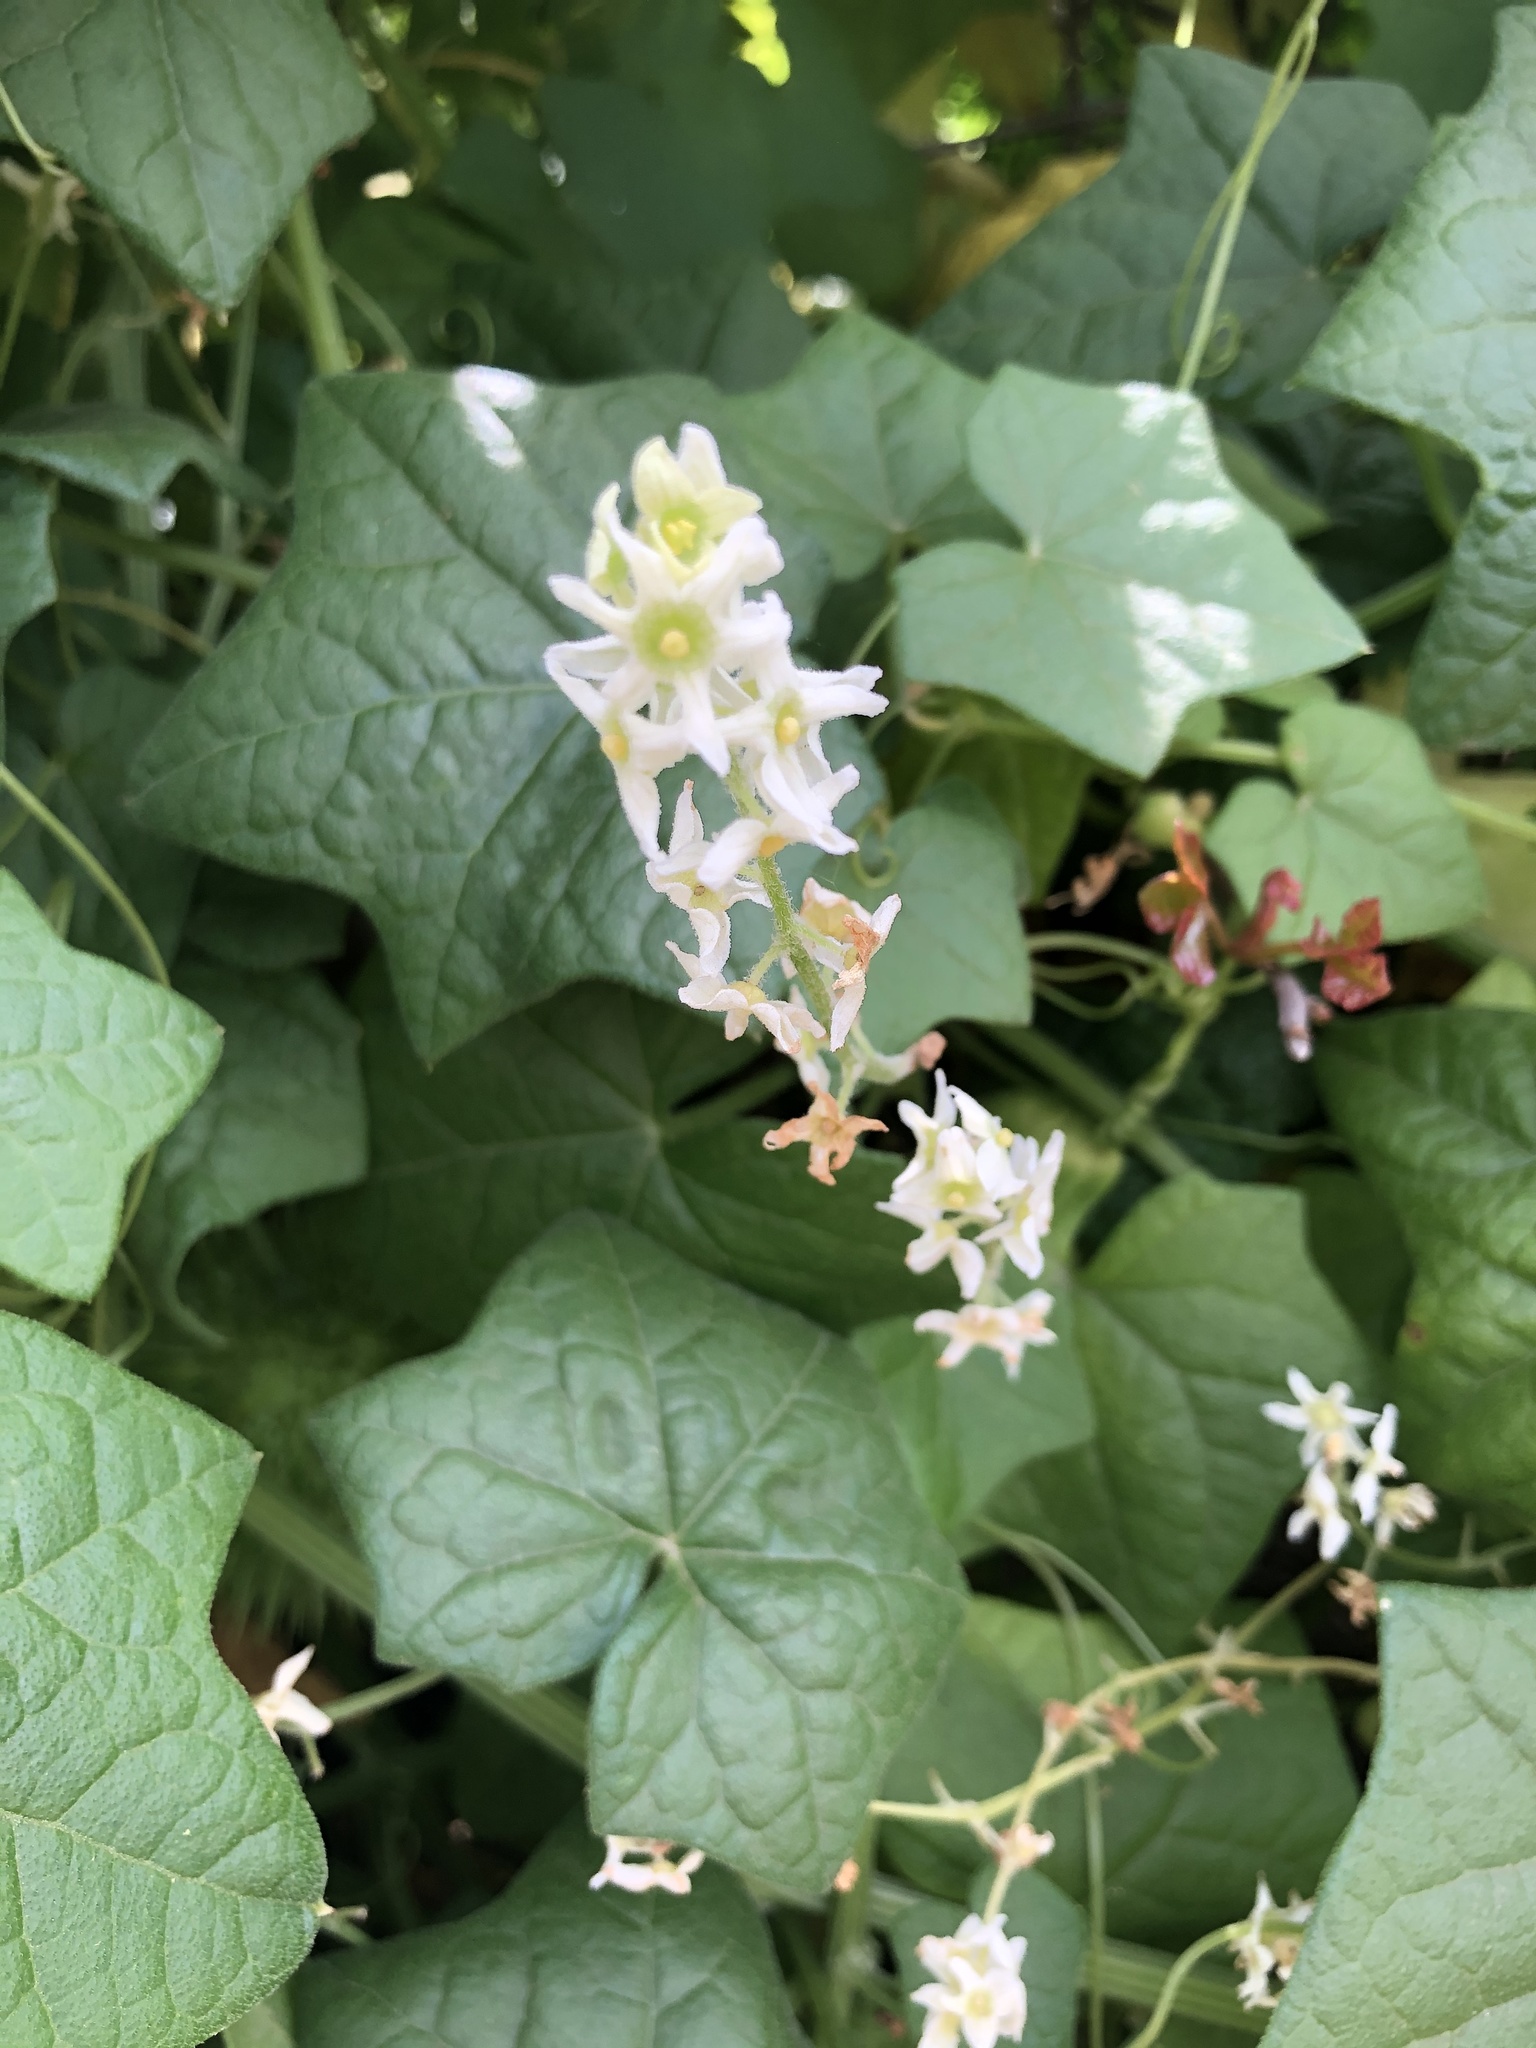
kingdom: Plantae
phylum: Tracheophyta
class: Magnoliopsida
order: Cucurbitales
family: Cucurbitaceae
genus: Marah
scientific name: Marah fabacea
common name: California manroot
